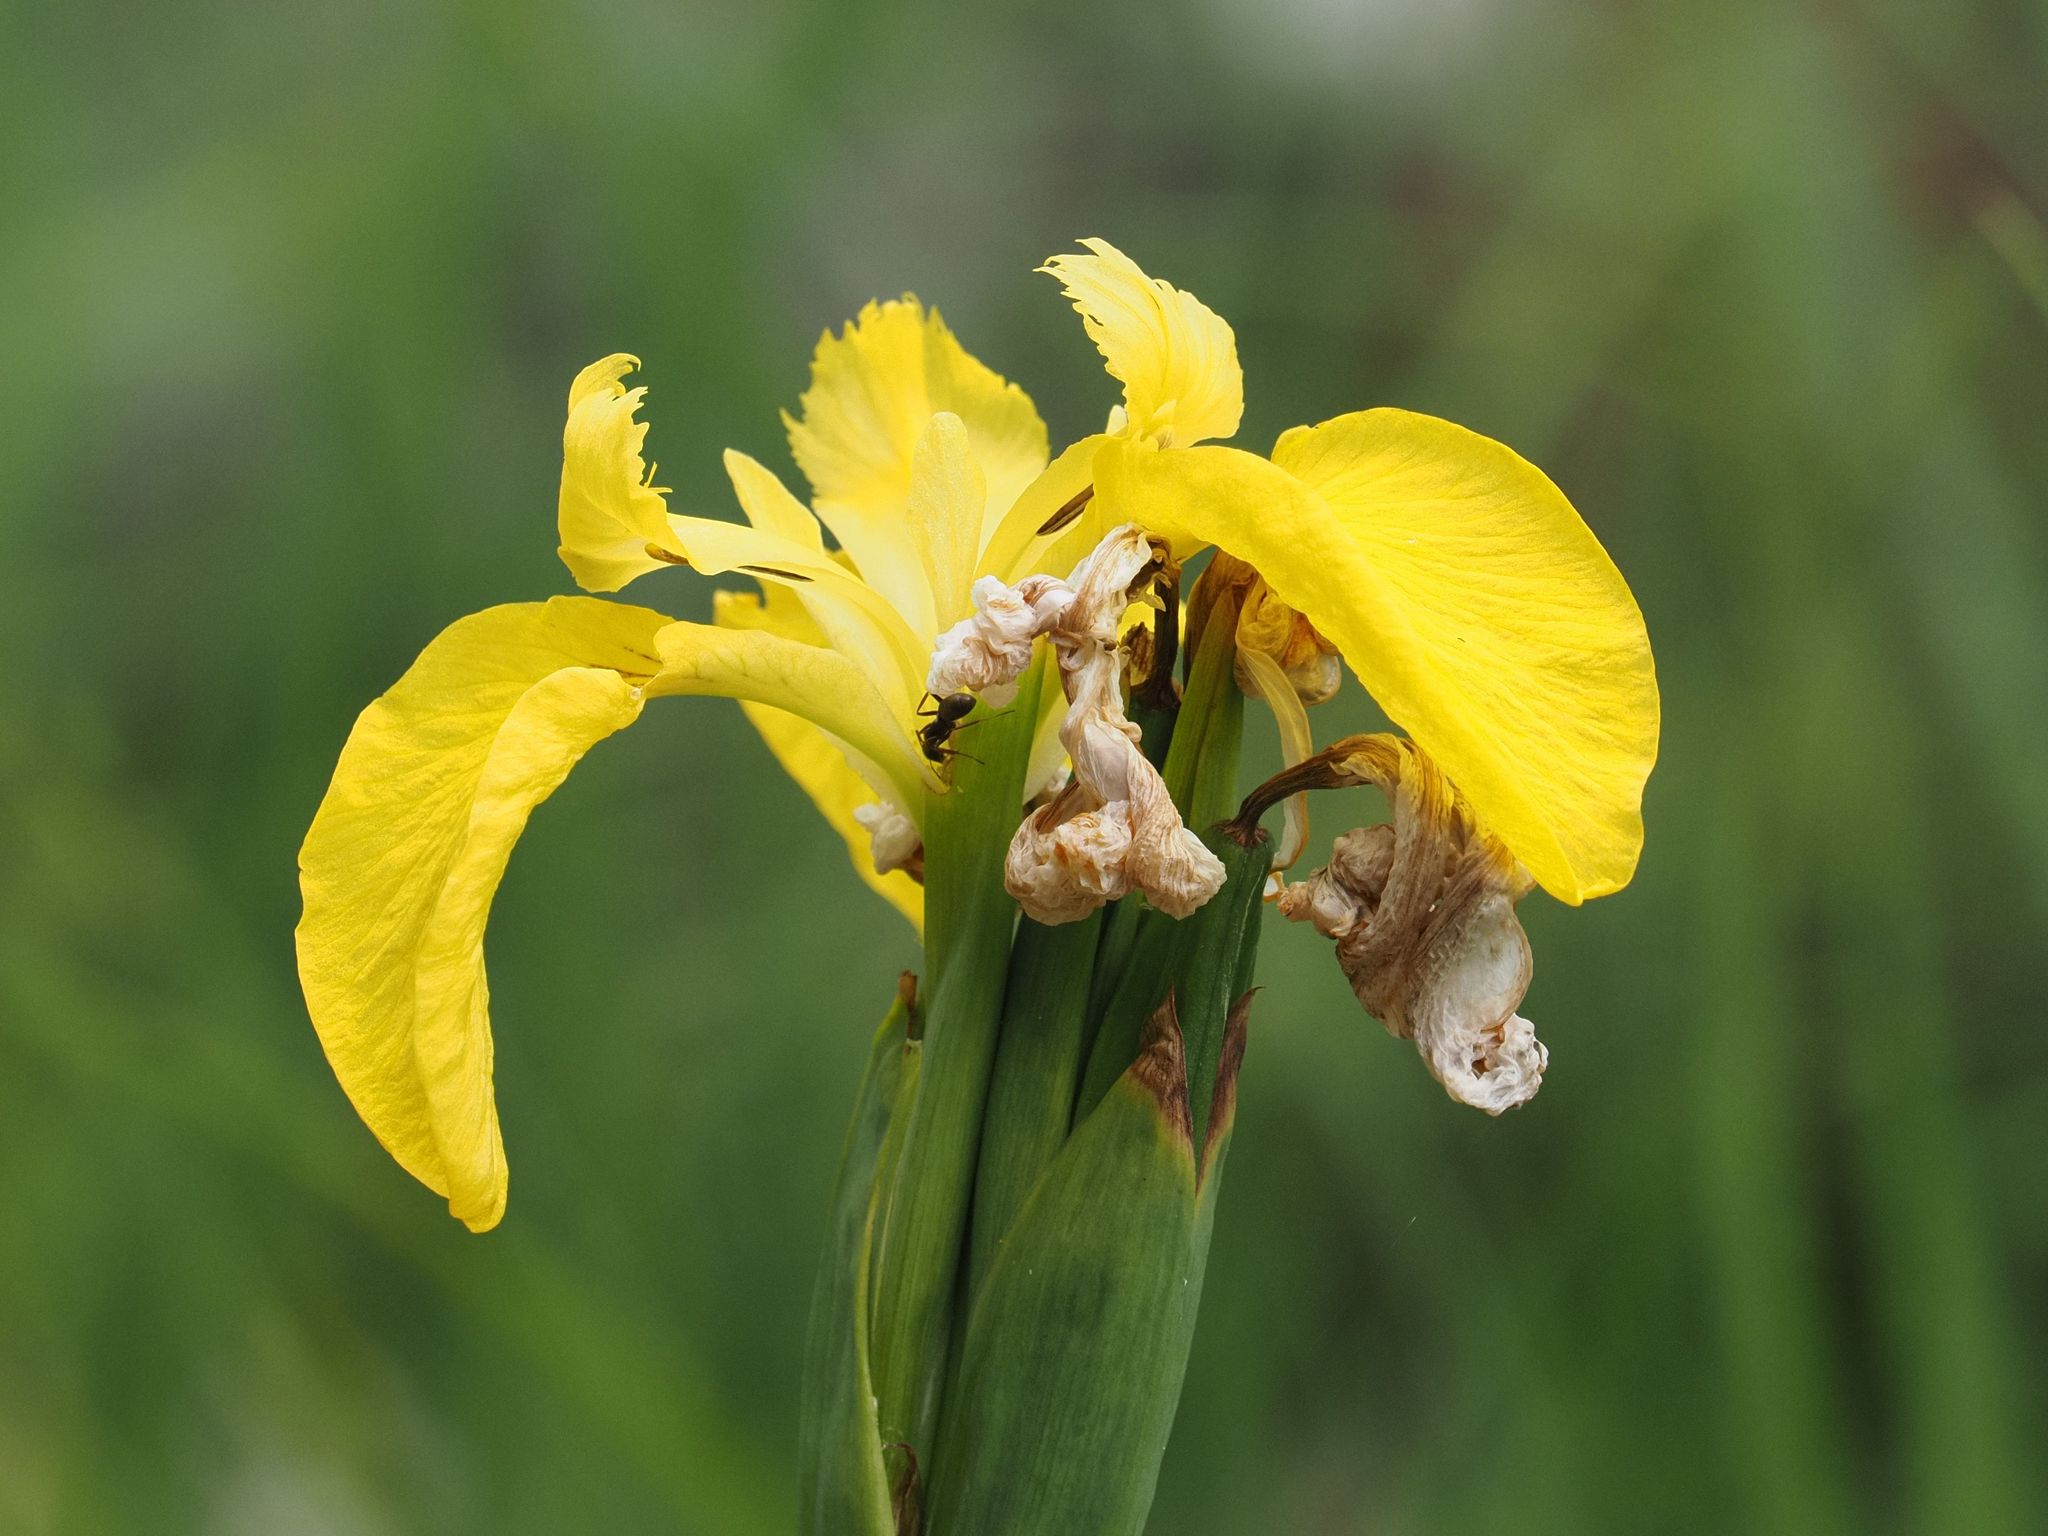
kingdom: Plantae
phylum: Tracheophyta
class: Liliopsida
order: Asparagales
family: Iridaceae
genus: Iris
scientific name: Iris pseudacorus
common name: Yellow flag
